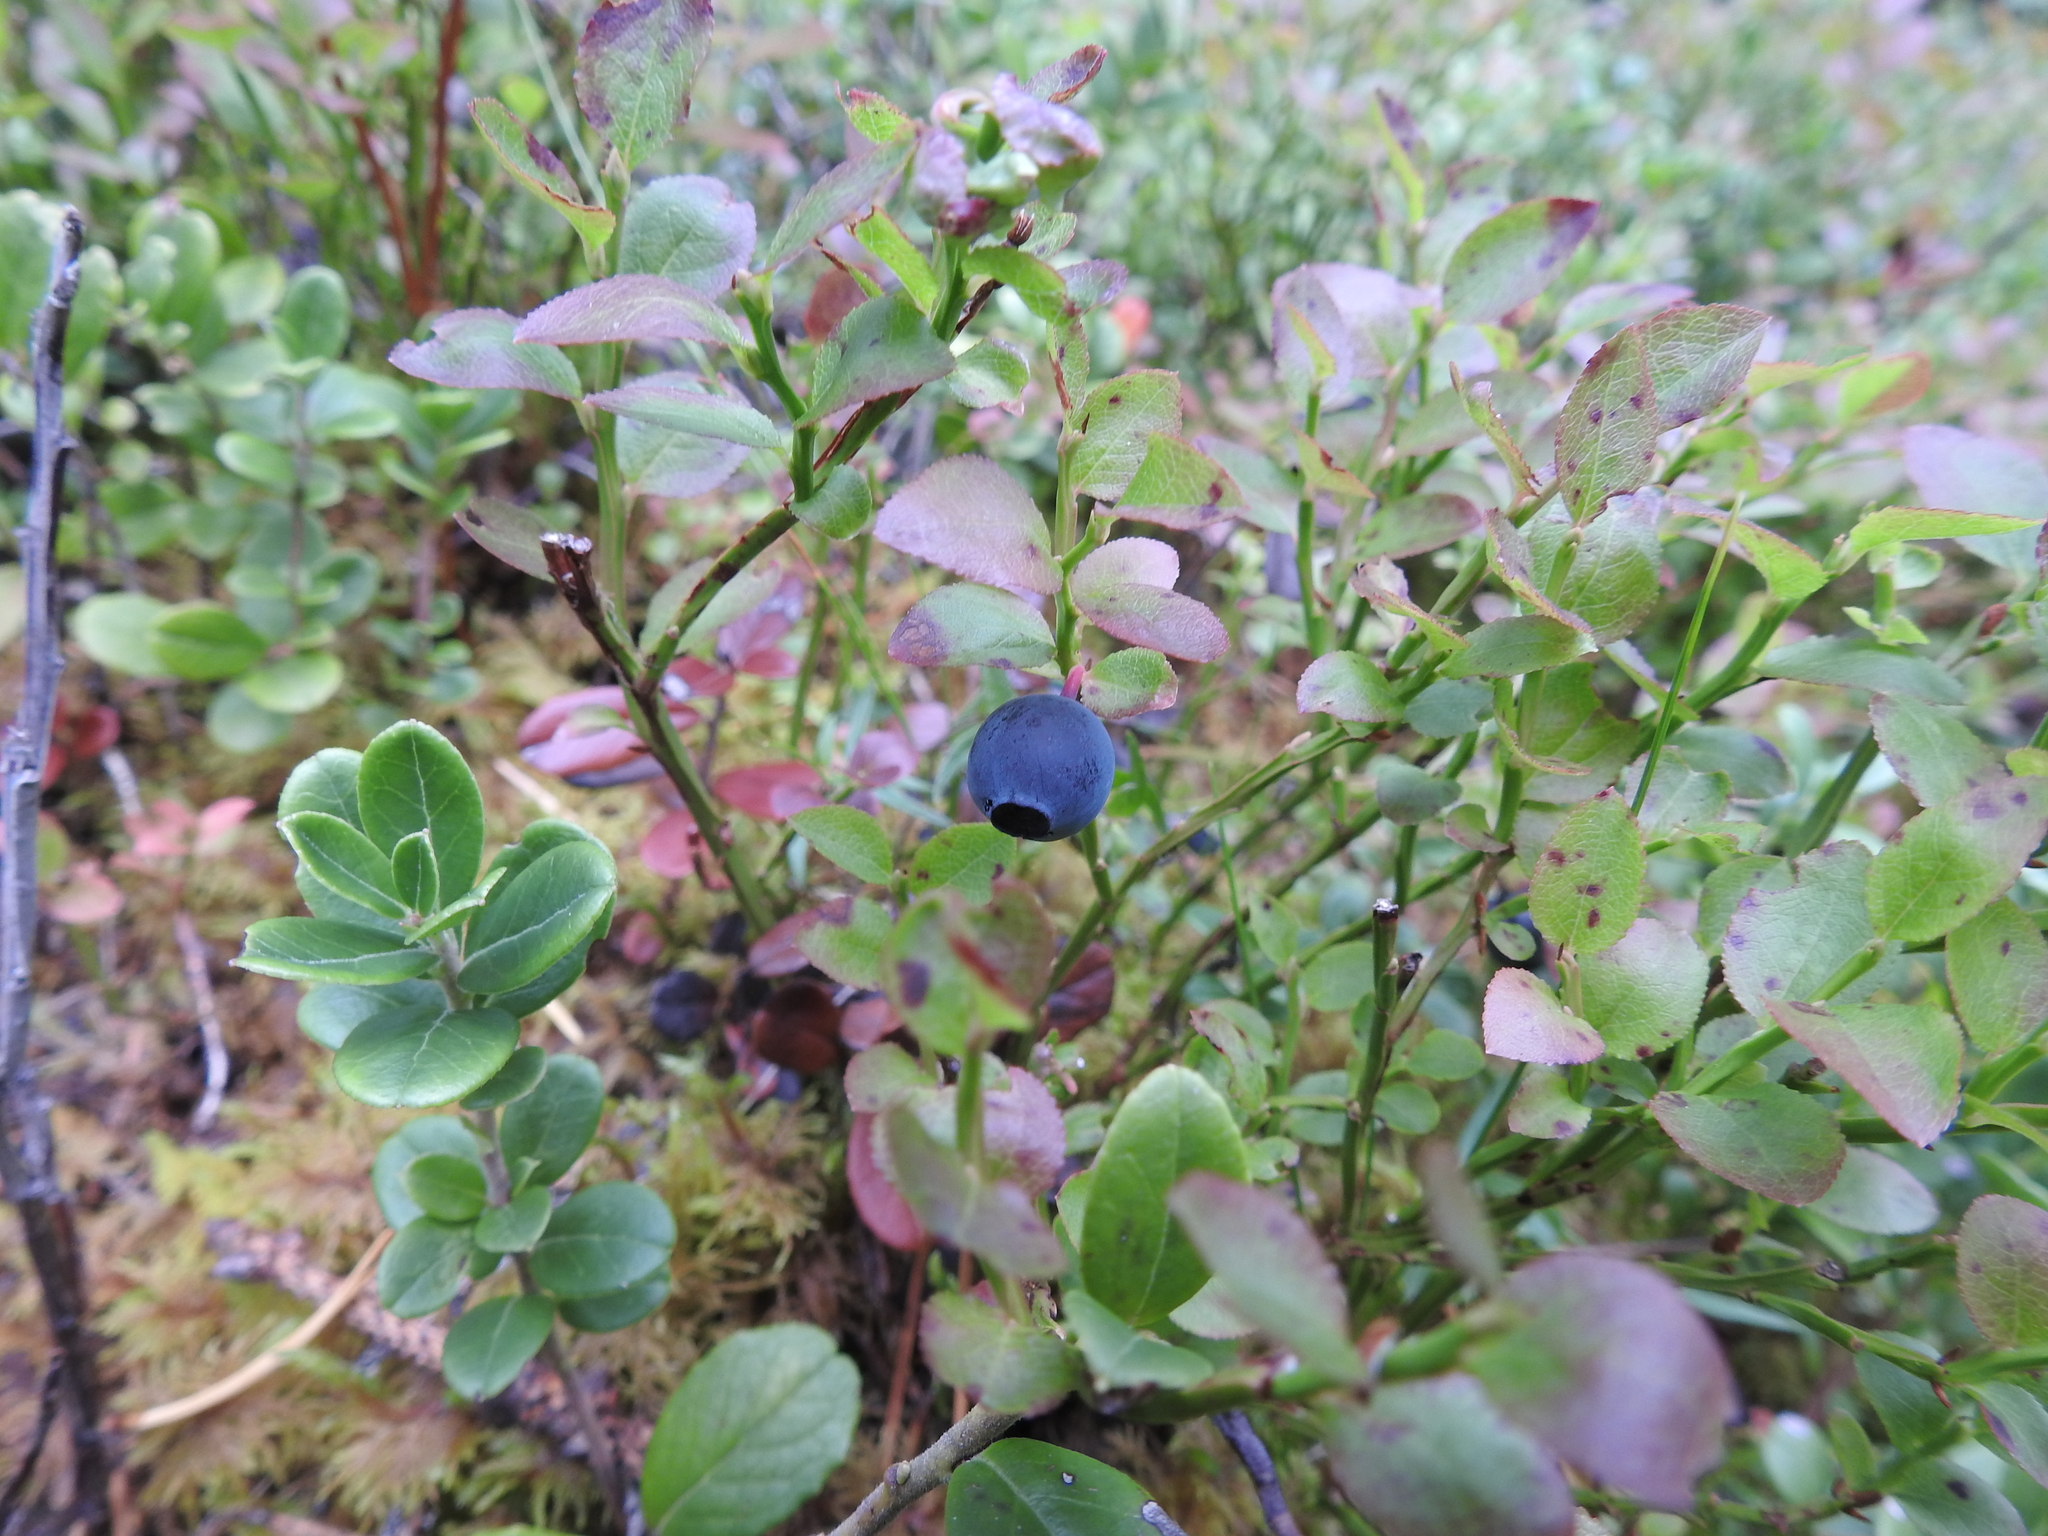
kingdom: Plantae
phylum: Tracheophyta
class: Magnoliopsida
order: Ericales
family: Ericaceae
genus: Vaccinium
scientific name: Vaccinium myrtillus
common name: Bilberry
